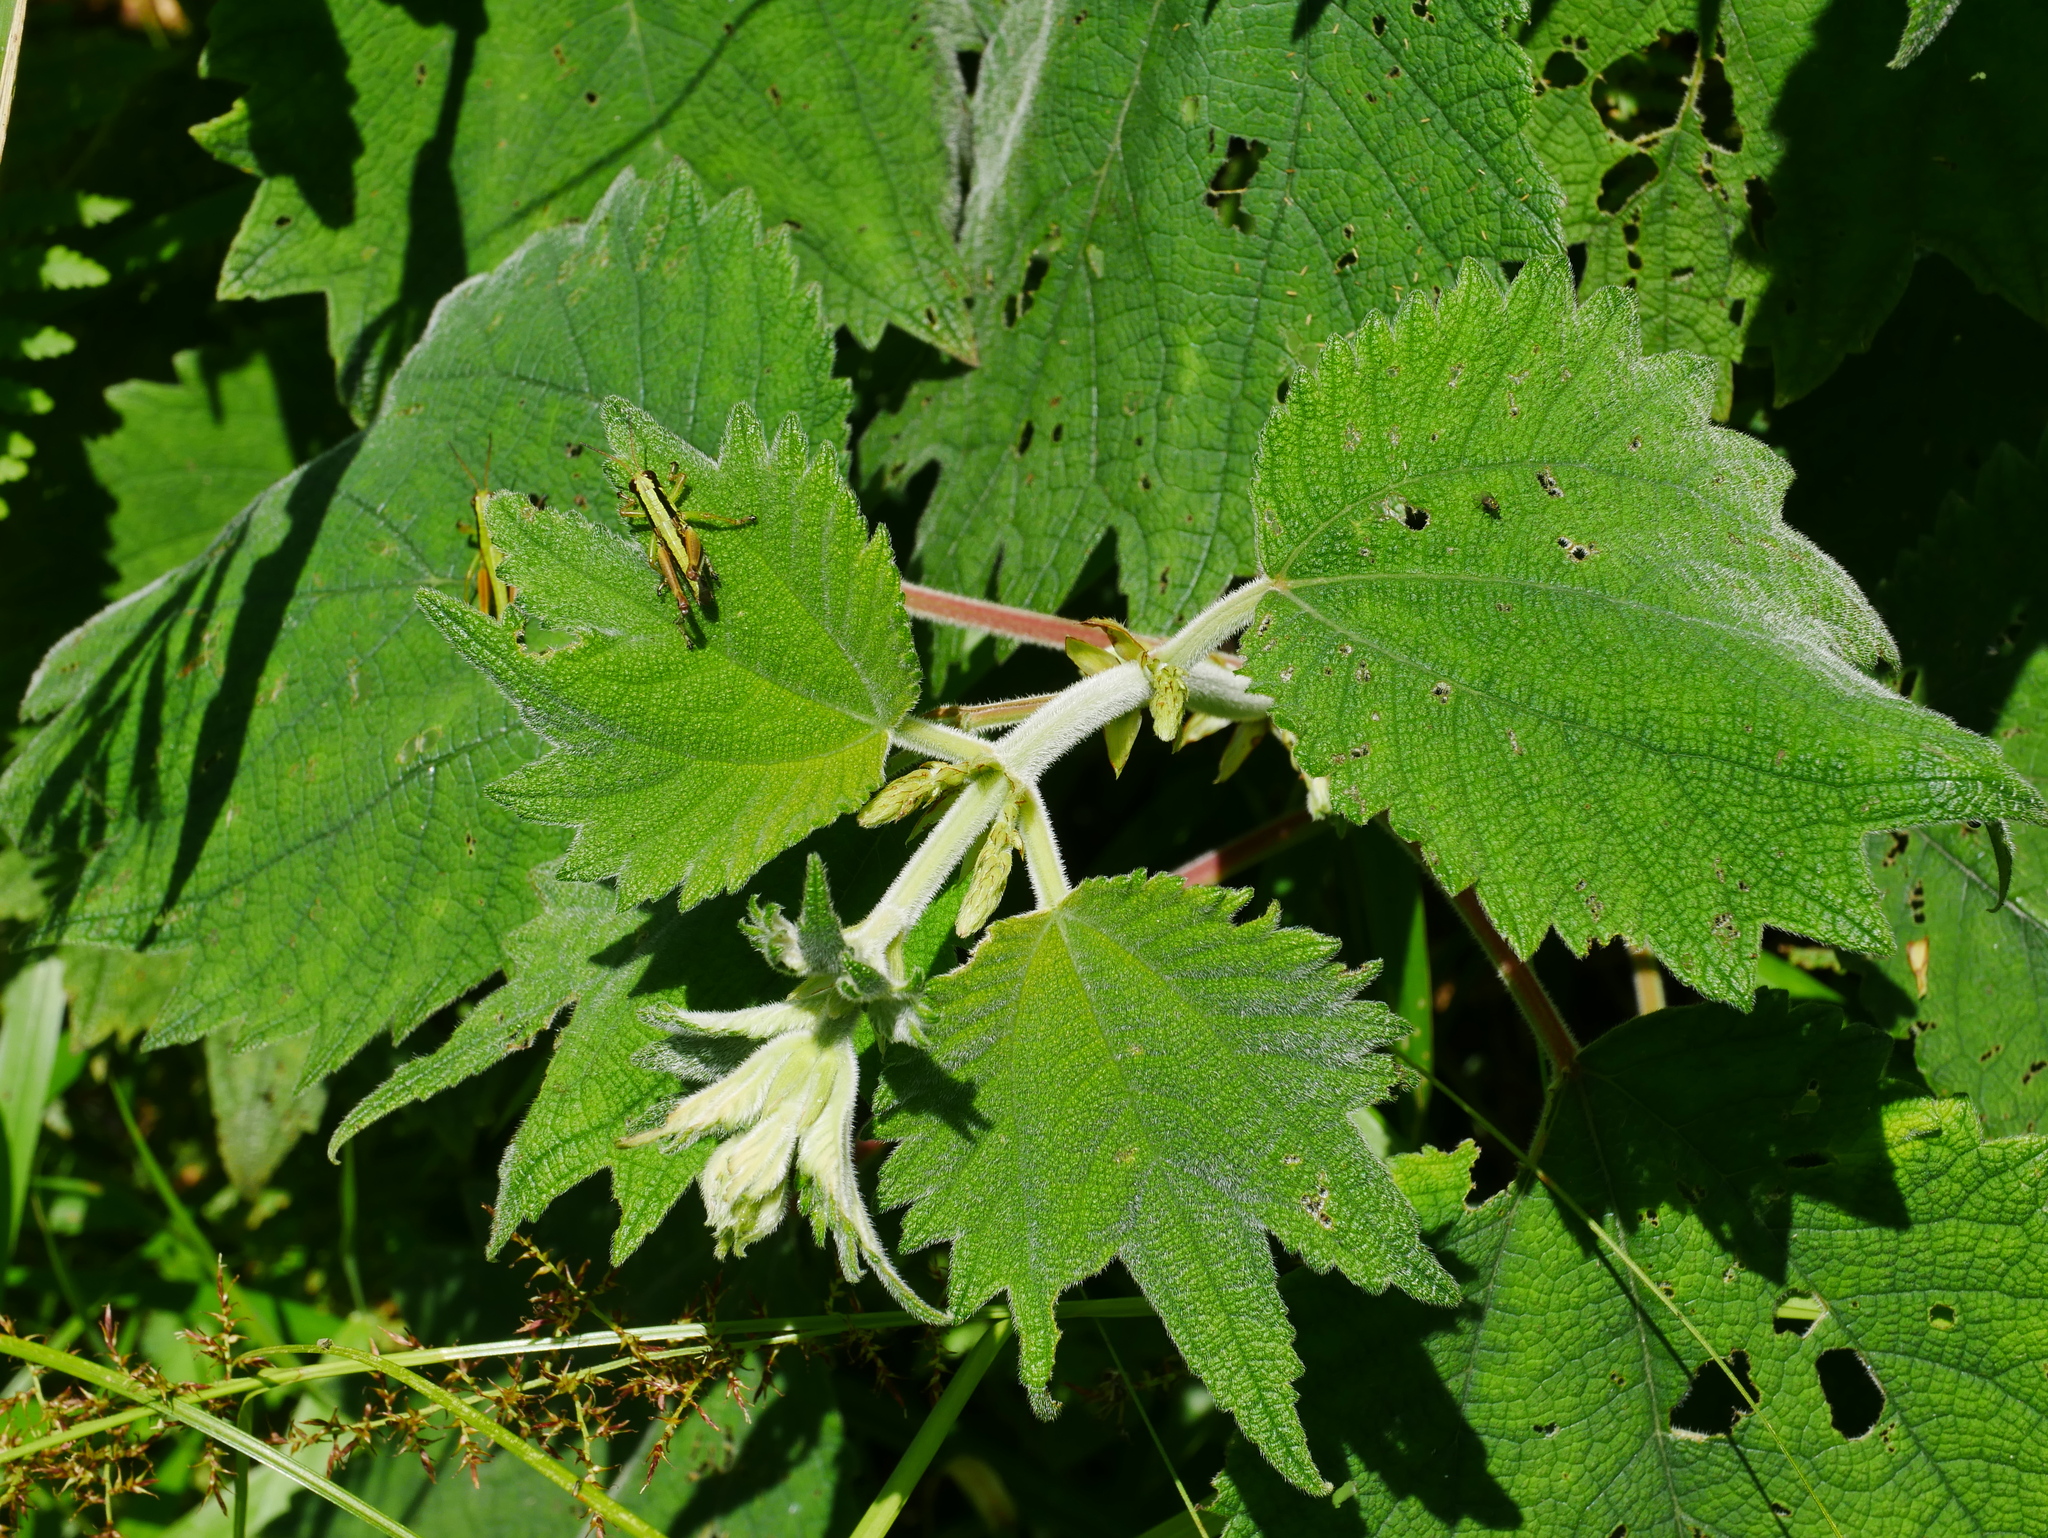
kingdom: Plantae
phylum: Tracheophyta
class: Magnoliopsida
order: Rosales
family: Urticaceae
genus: Boehmeria
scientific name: Boehmeria japonica
